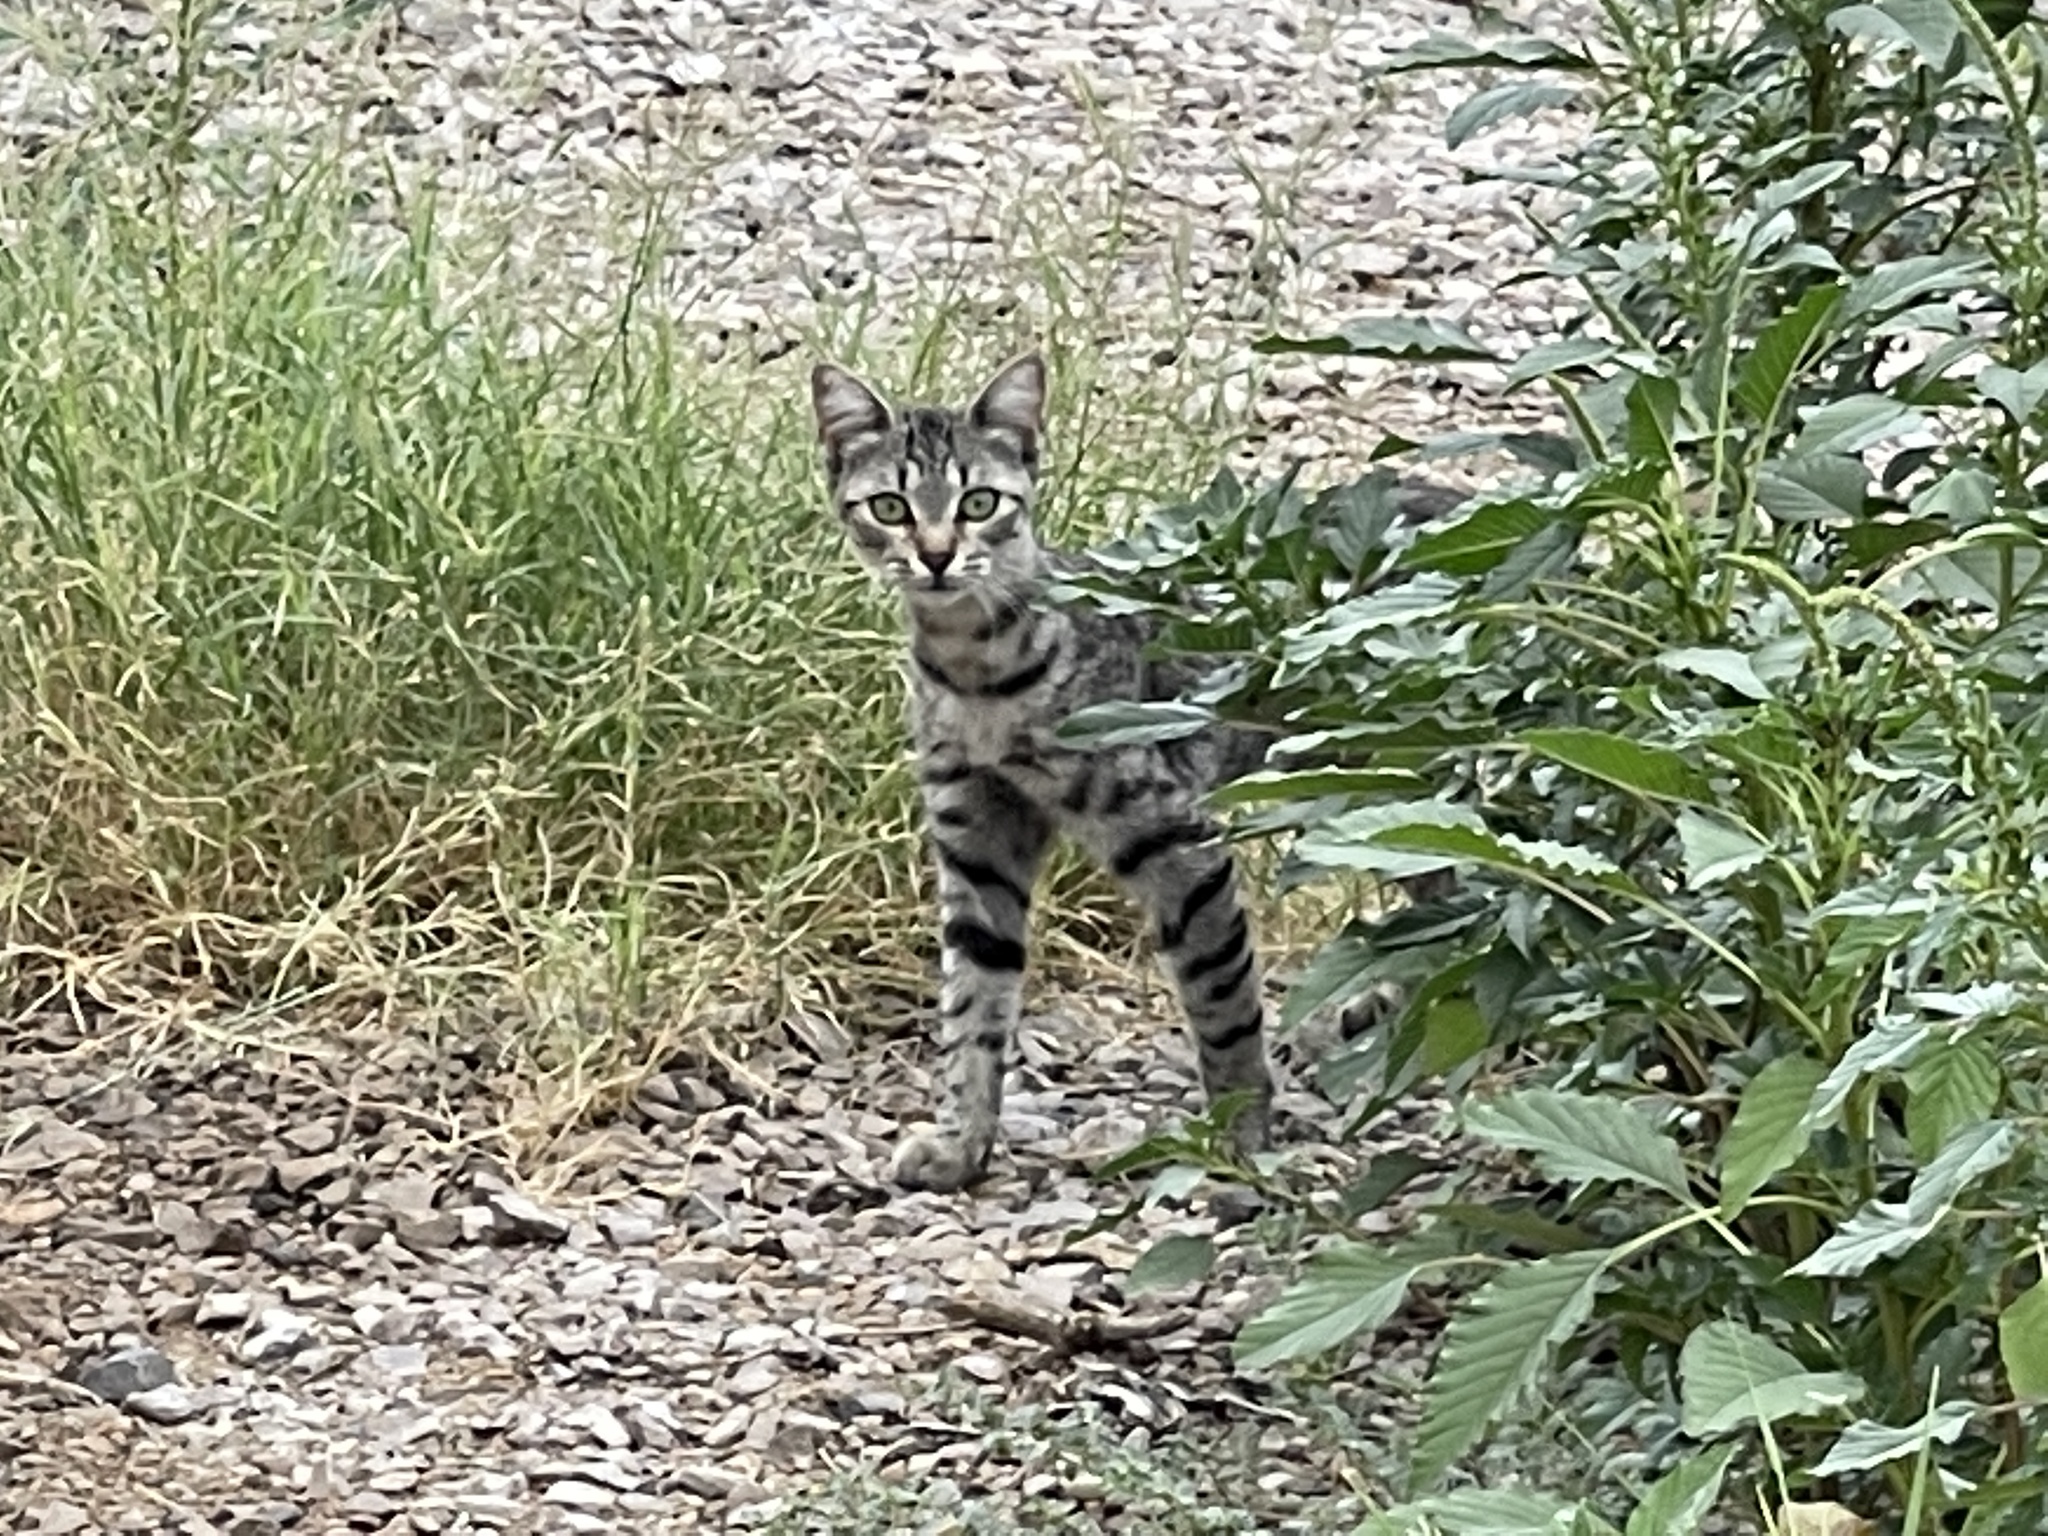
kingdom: Animalia
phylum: Chordata
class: Mammalia
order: Carnivora
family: Felidae
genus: Felis
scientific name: Felis catus
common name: Domestic cat
